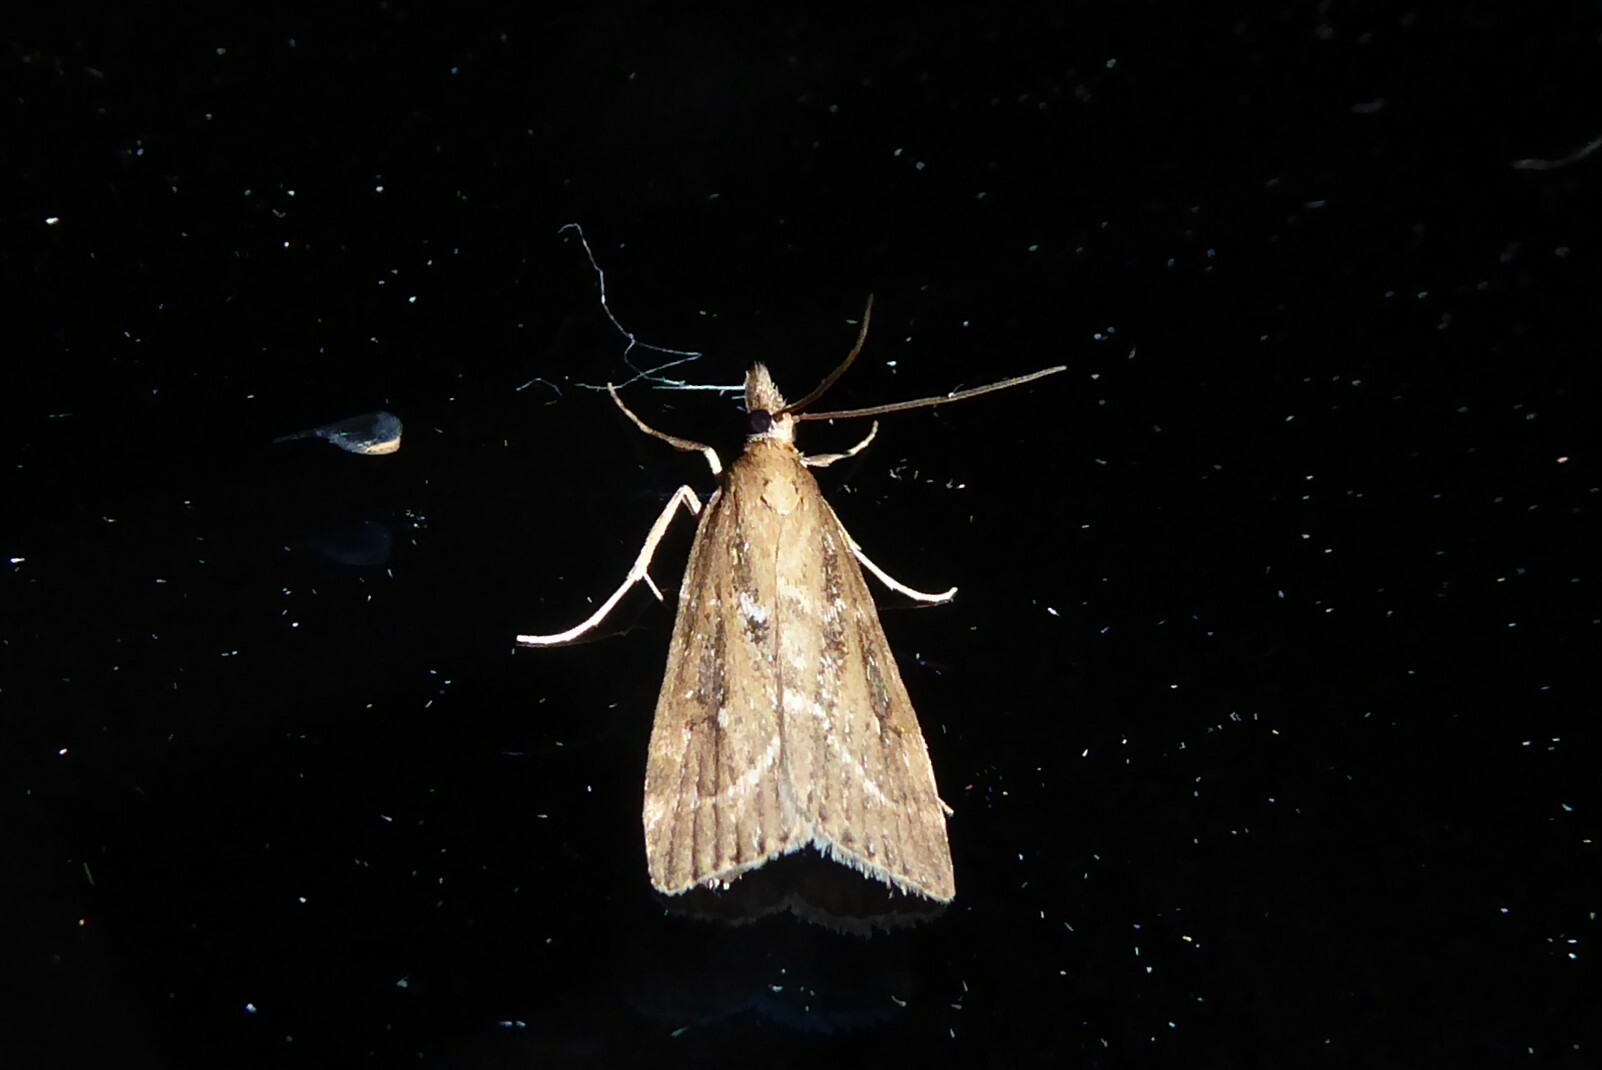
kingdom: Animalia
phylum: Arthropoda
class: Insecta
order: Lepidoptera
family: Crambidae
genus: Eudonia
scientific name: Eudonia octophora
